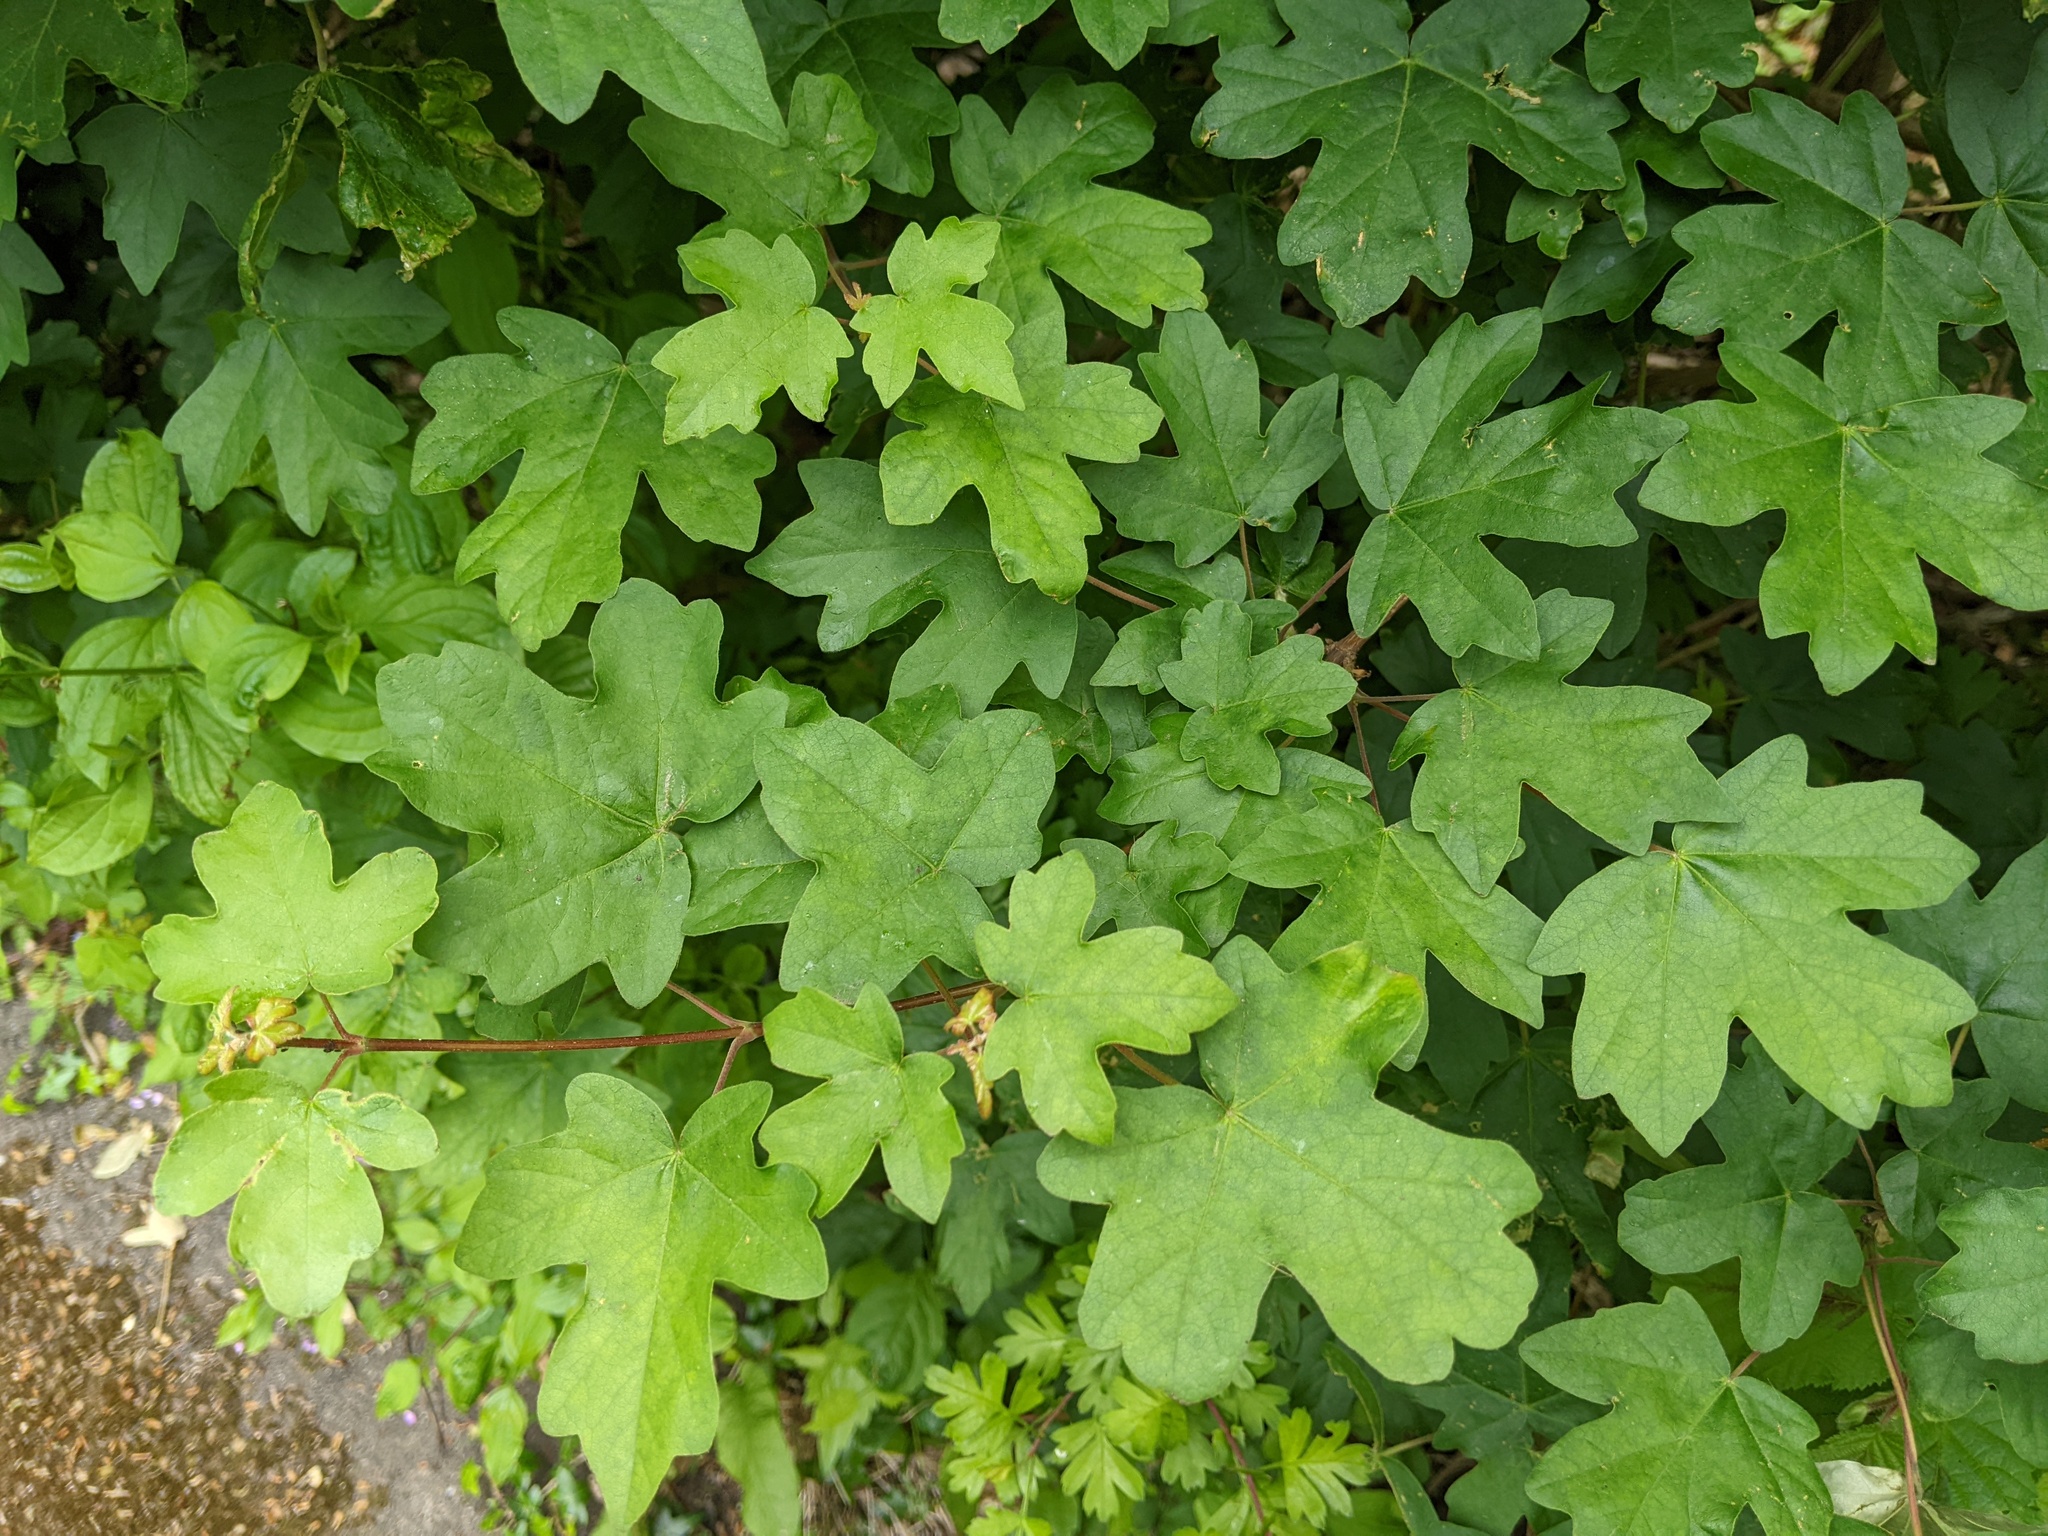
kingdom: Plantae
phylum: Tracheophyta
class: Magnoliopsida
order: Sapindales
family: Sapindaceae
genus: Acer
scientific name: Acer campestre
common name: Field maple
